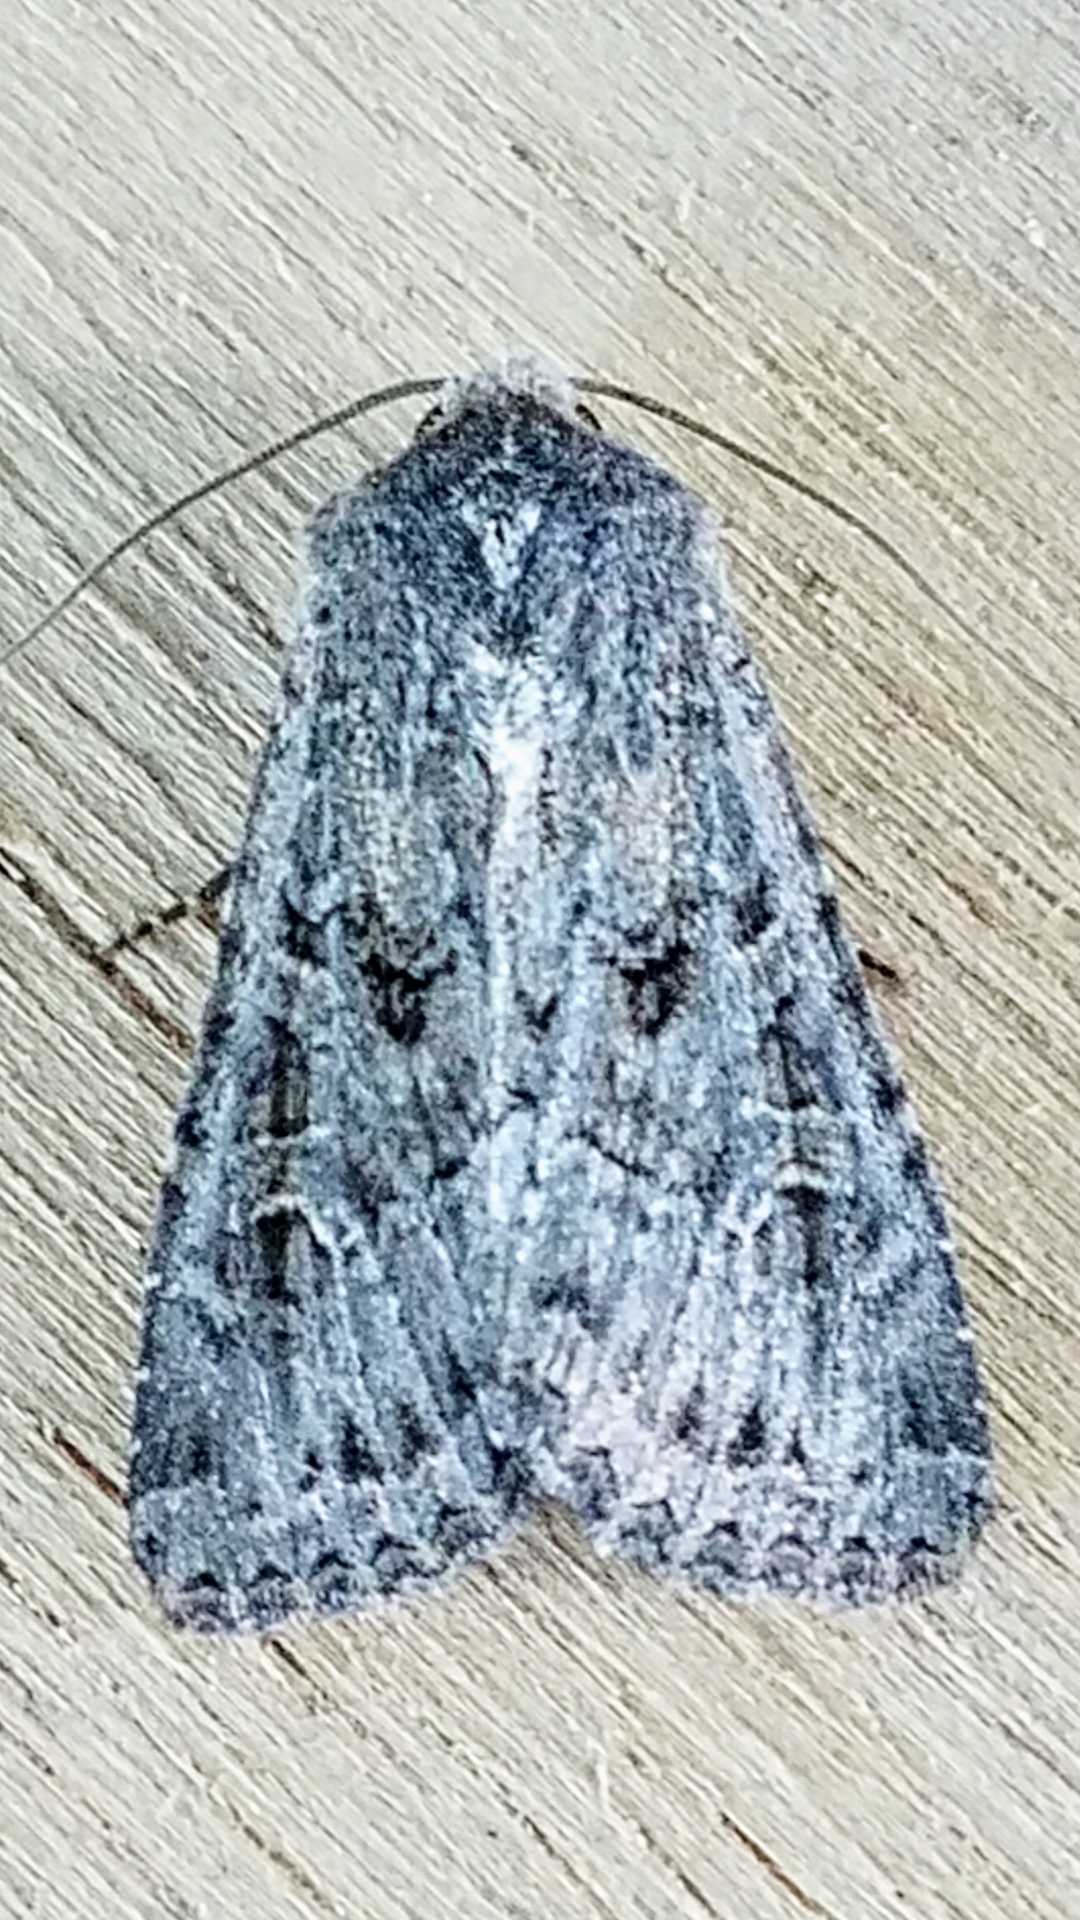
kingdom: Animalia
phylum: Arthropoda
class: Insecta
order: Lepidoptera
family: Noctuidae
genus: Apamea
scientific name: Apamea devastator
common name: Glassy cutworm
